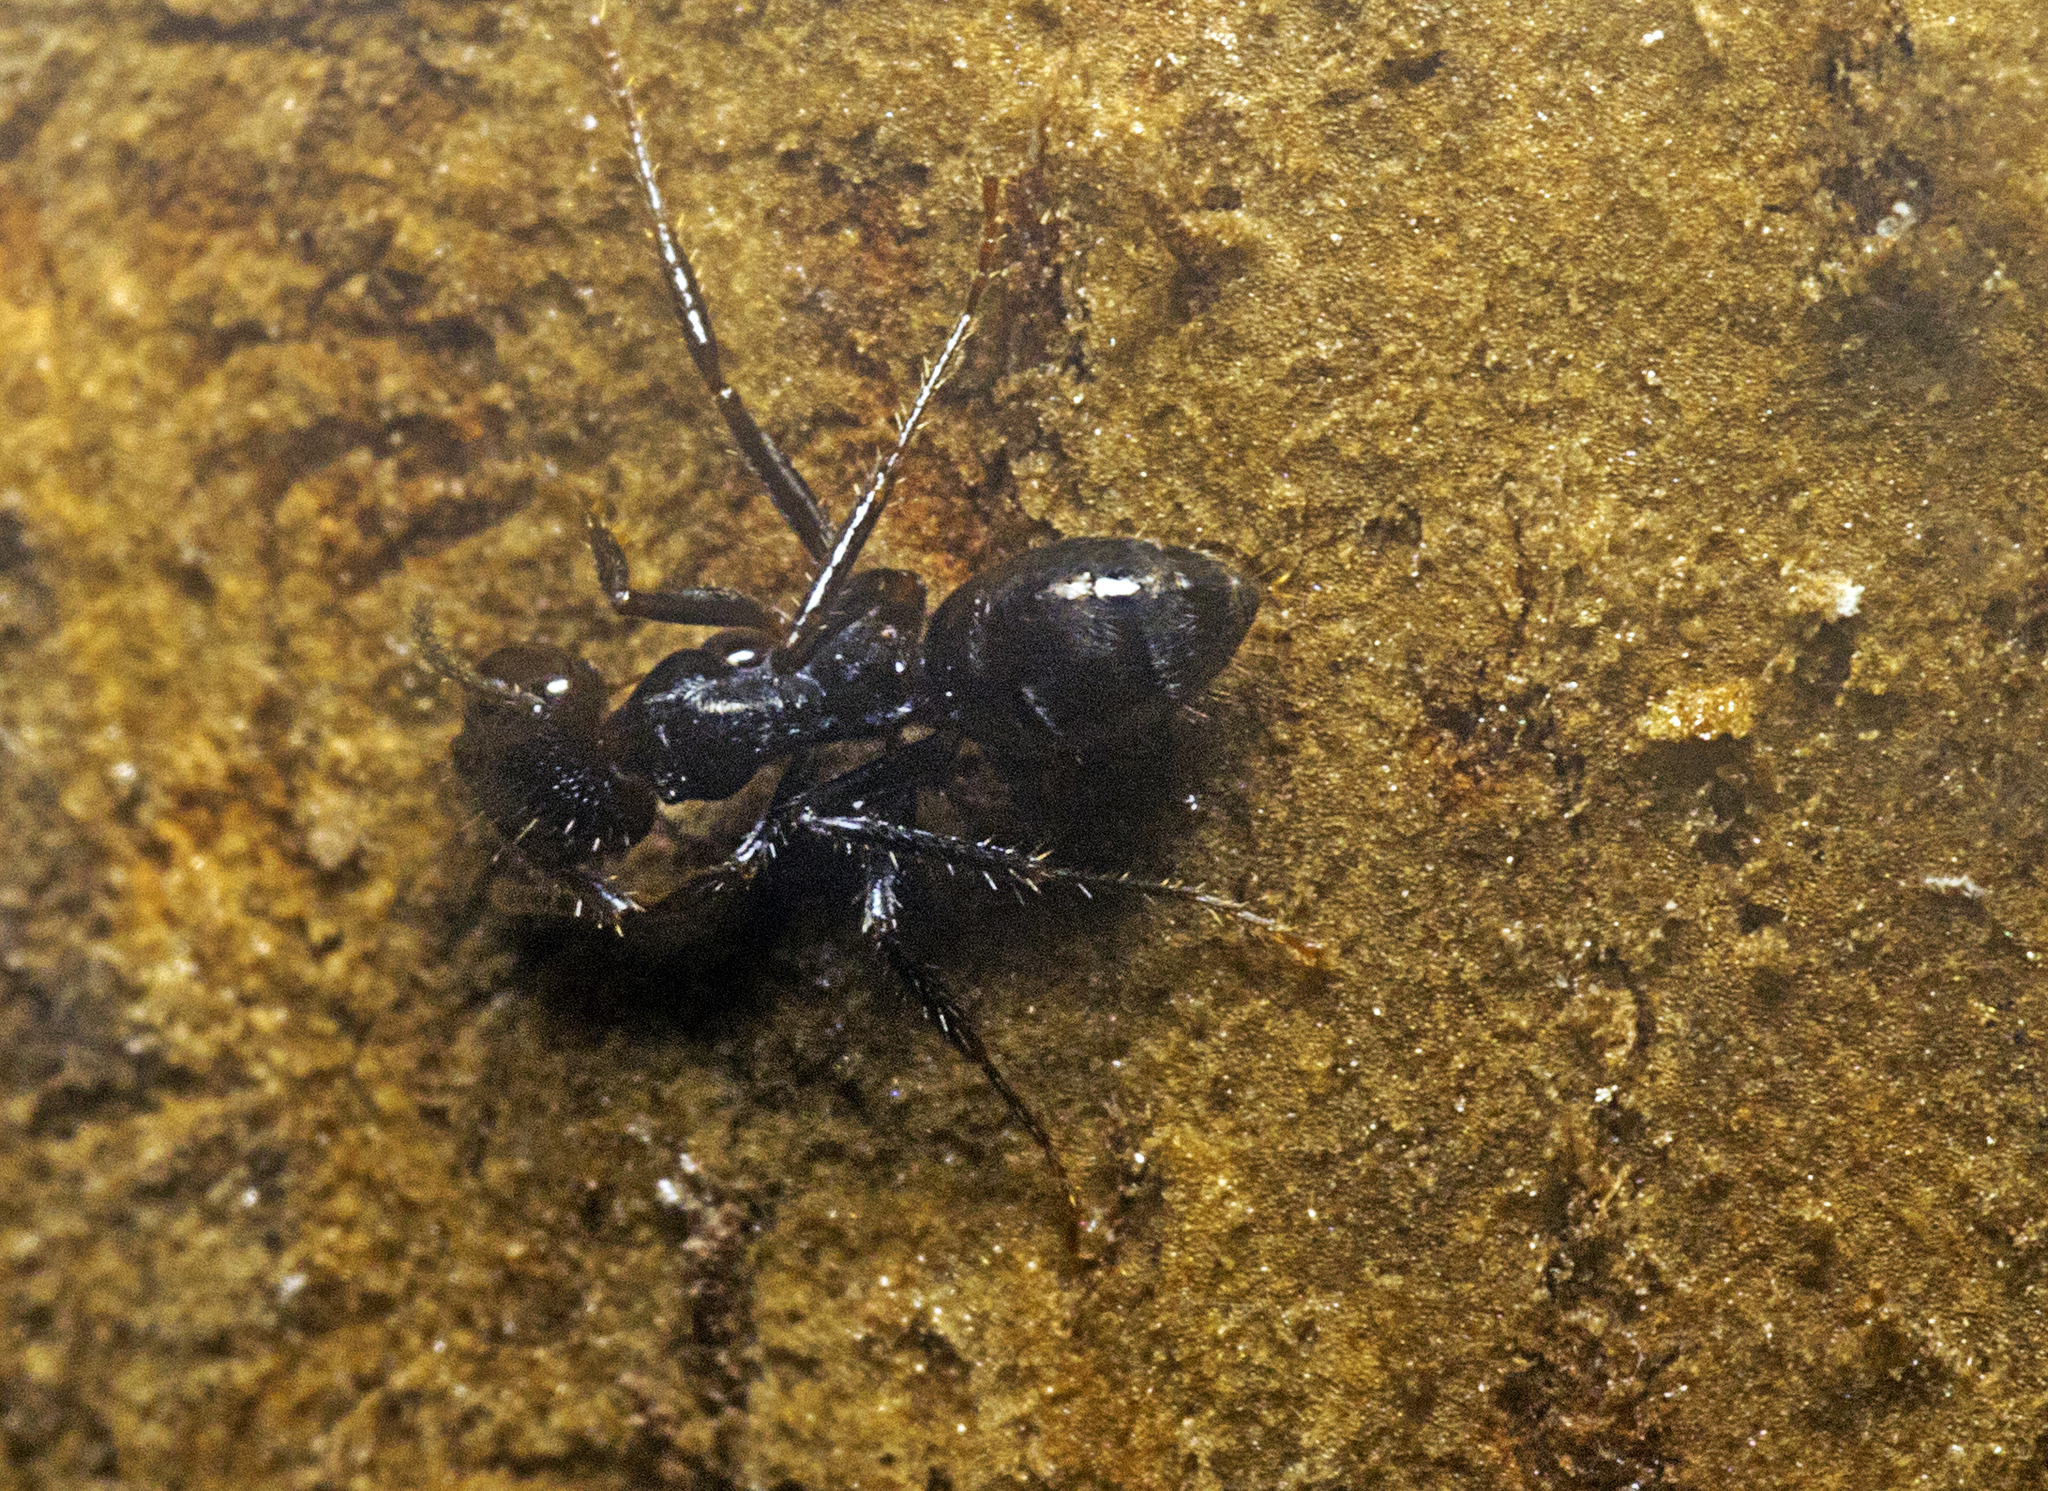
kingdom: Animalia
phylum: Arthropoda
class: Insecta
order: Hymenoptera
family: Formicidae
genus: Notoncus
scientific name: Notoncus capitatus
